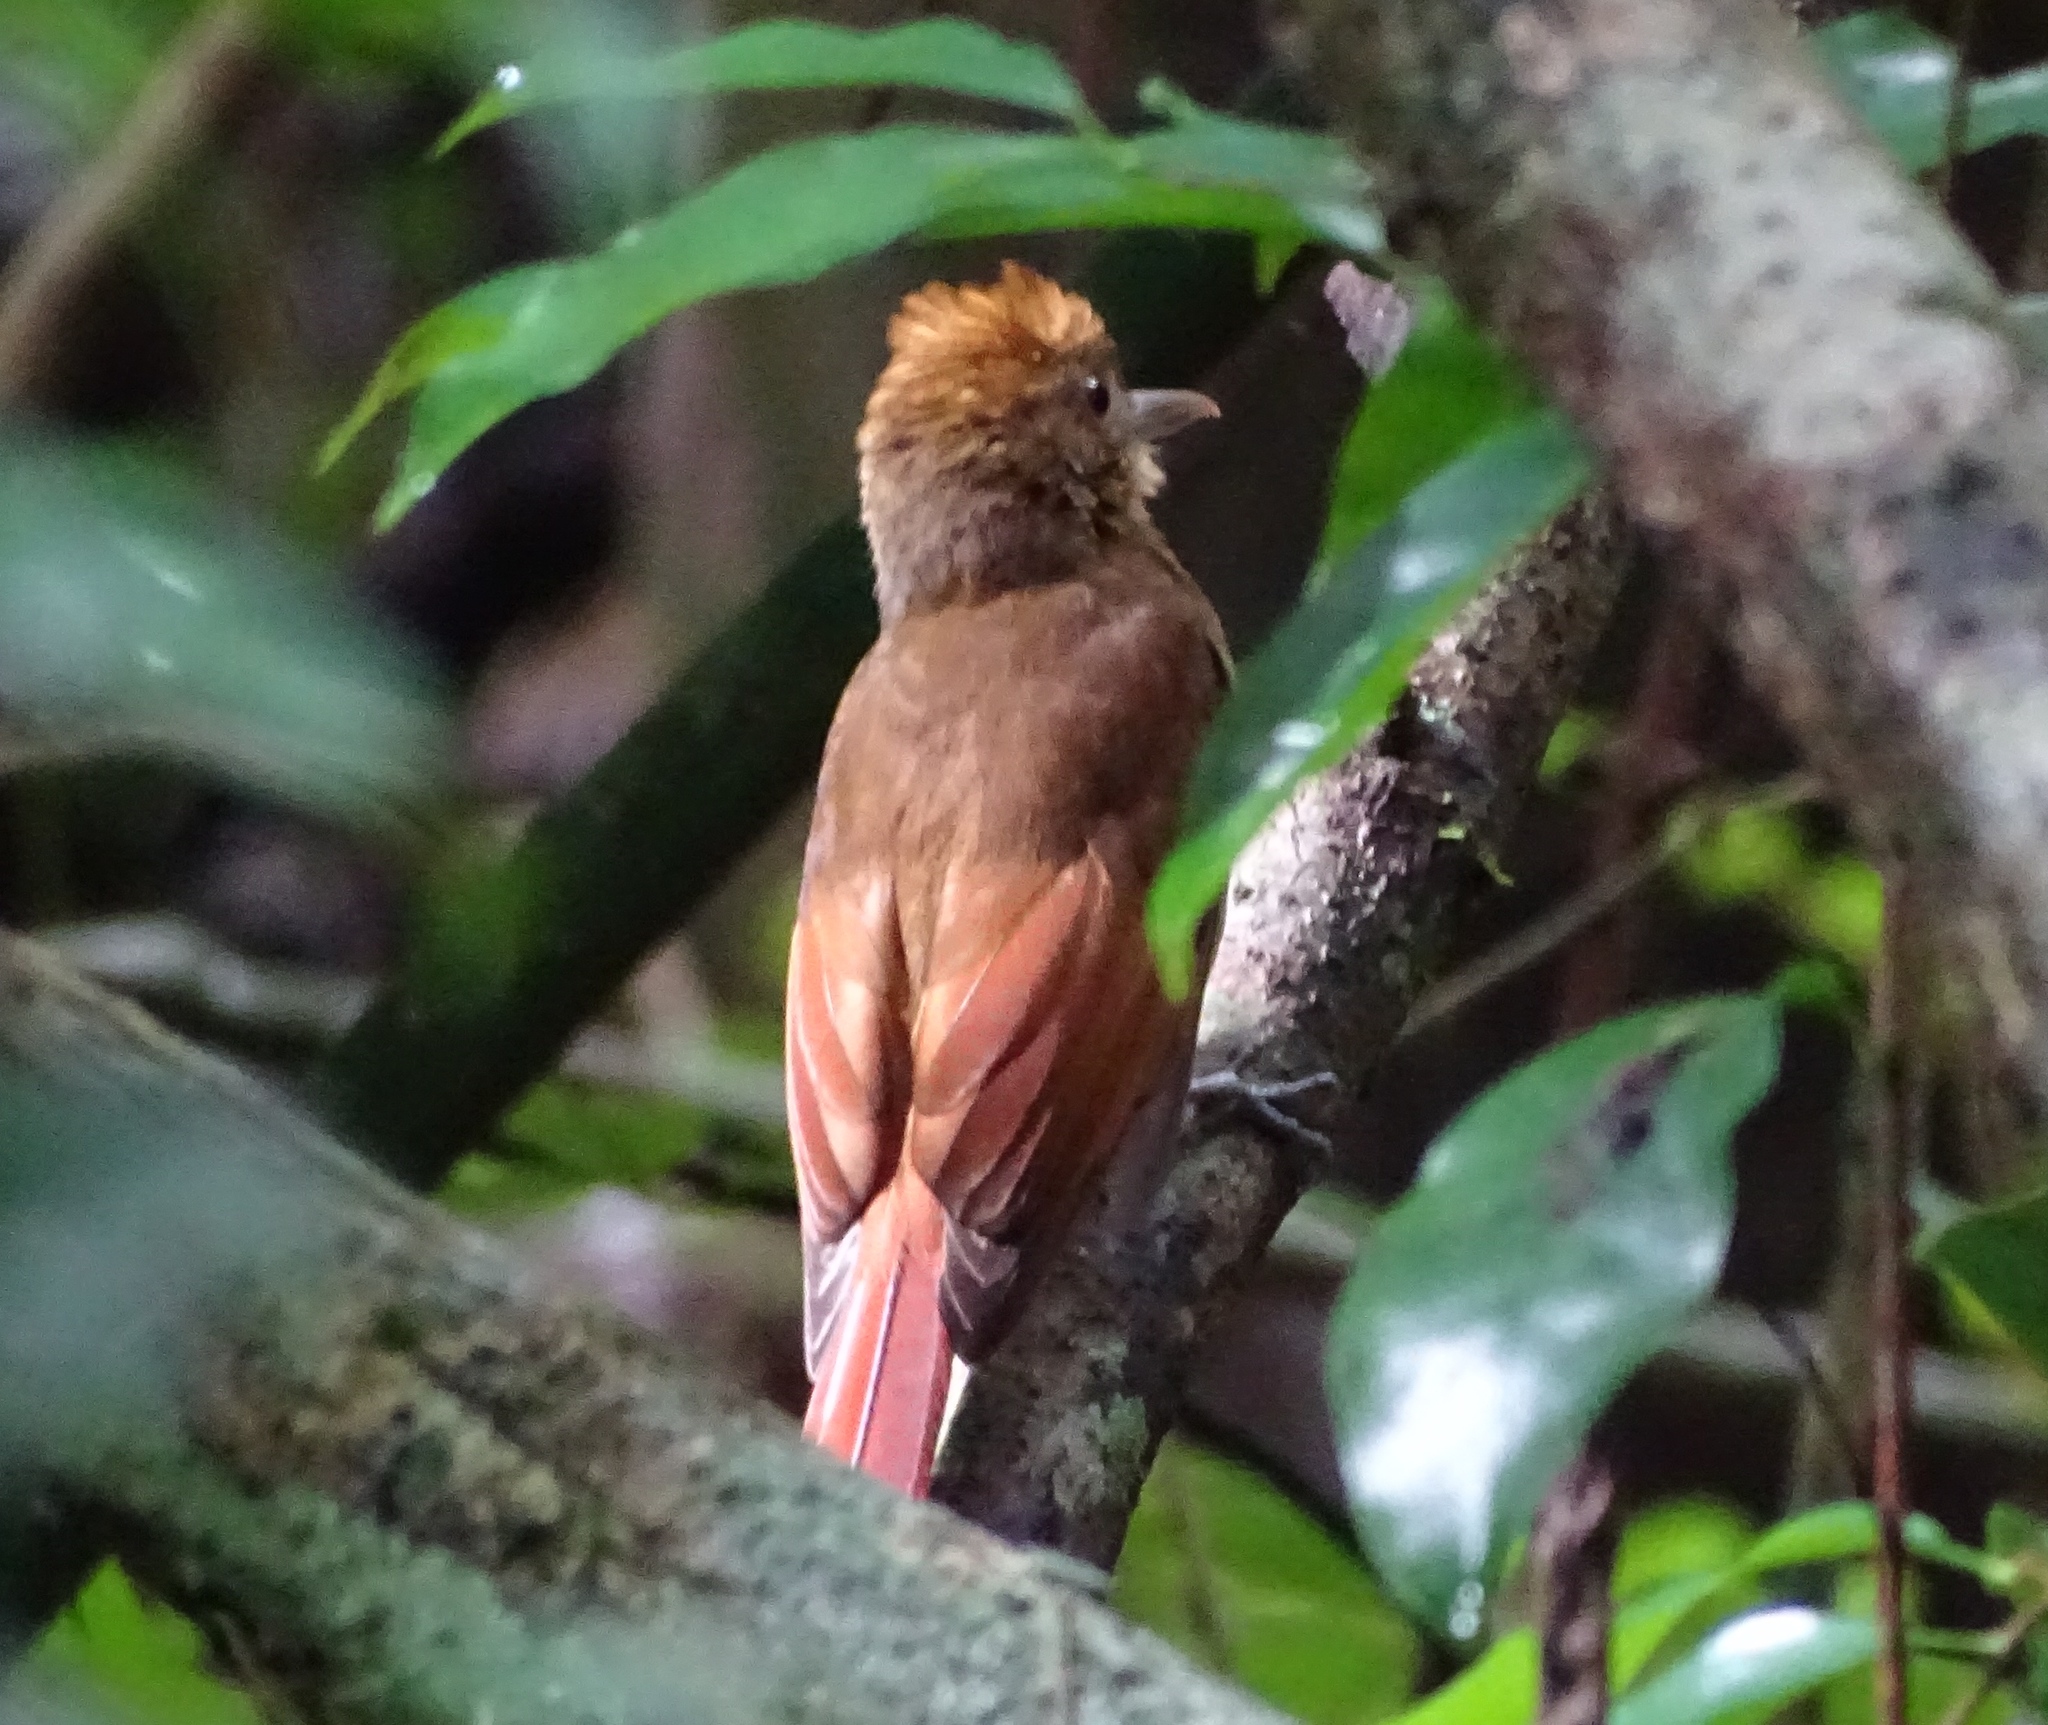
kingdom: Animalia
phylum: Chordata
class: Aves
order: Passeriformes
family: Furnariidae
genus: Dendrocincla
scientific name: Dendrocincla anabatina
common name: Tawny-winged woodcreeper
